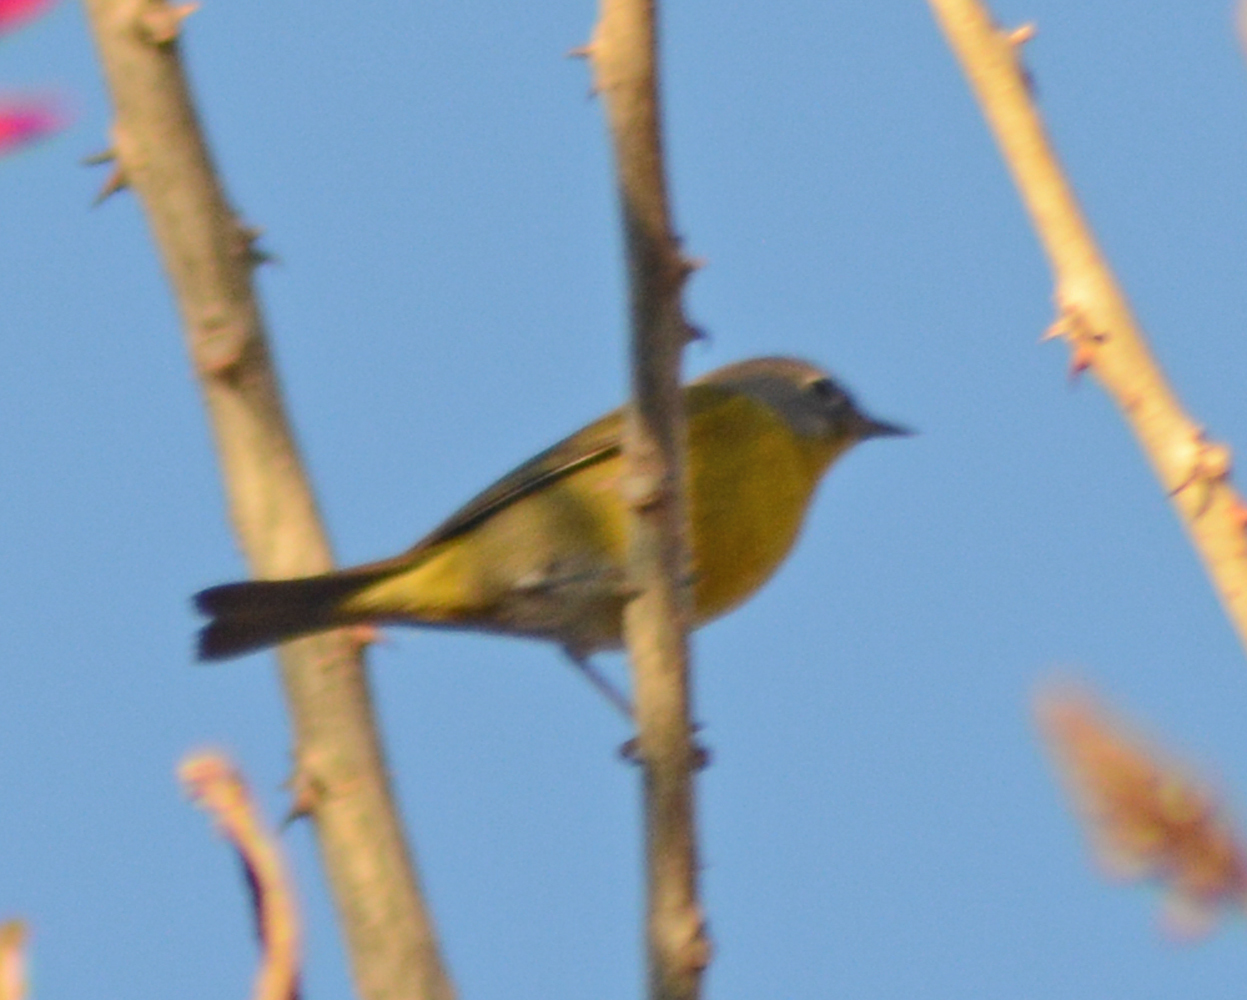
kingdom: Animalia
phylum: Chordata
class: Aves
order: Passeriformes
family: Parulidae
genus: Leiothlypis
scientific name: Leiothlypis ruficapilla
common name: Nashville warbler
